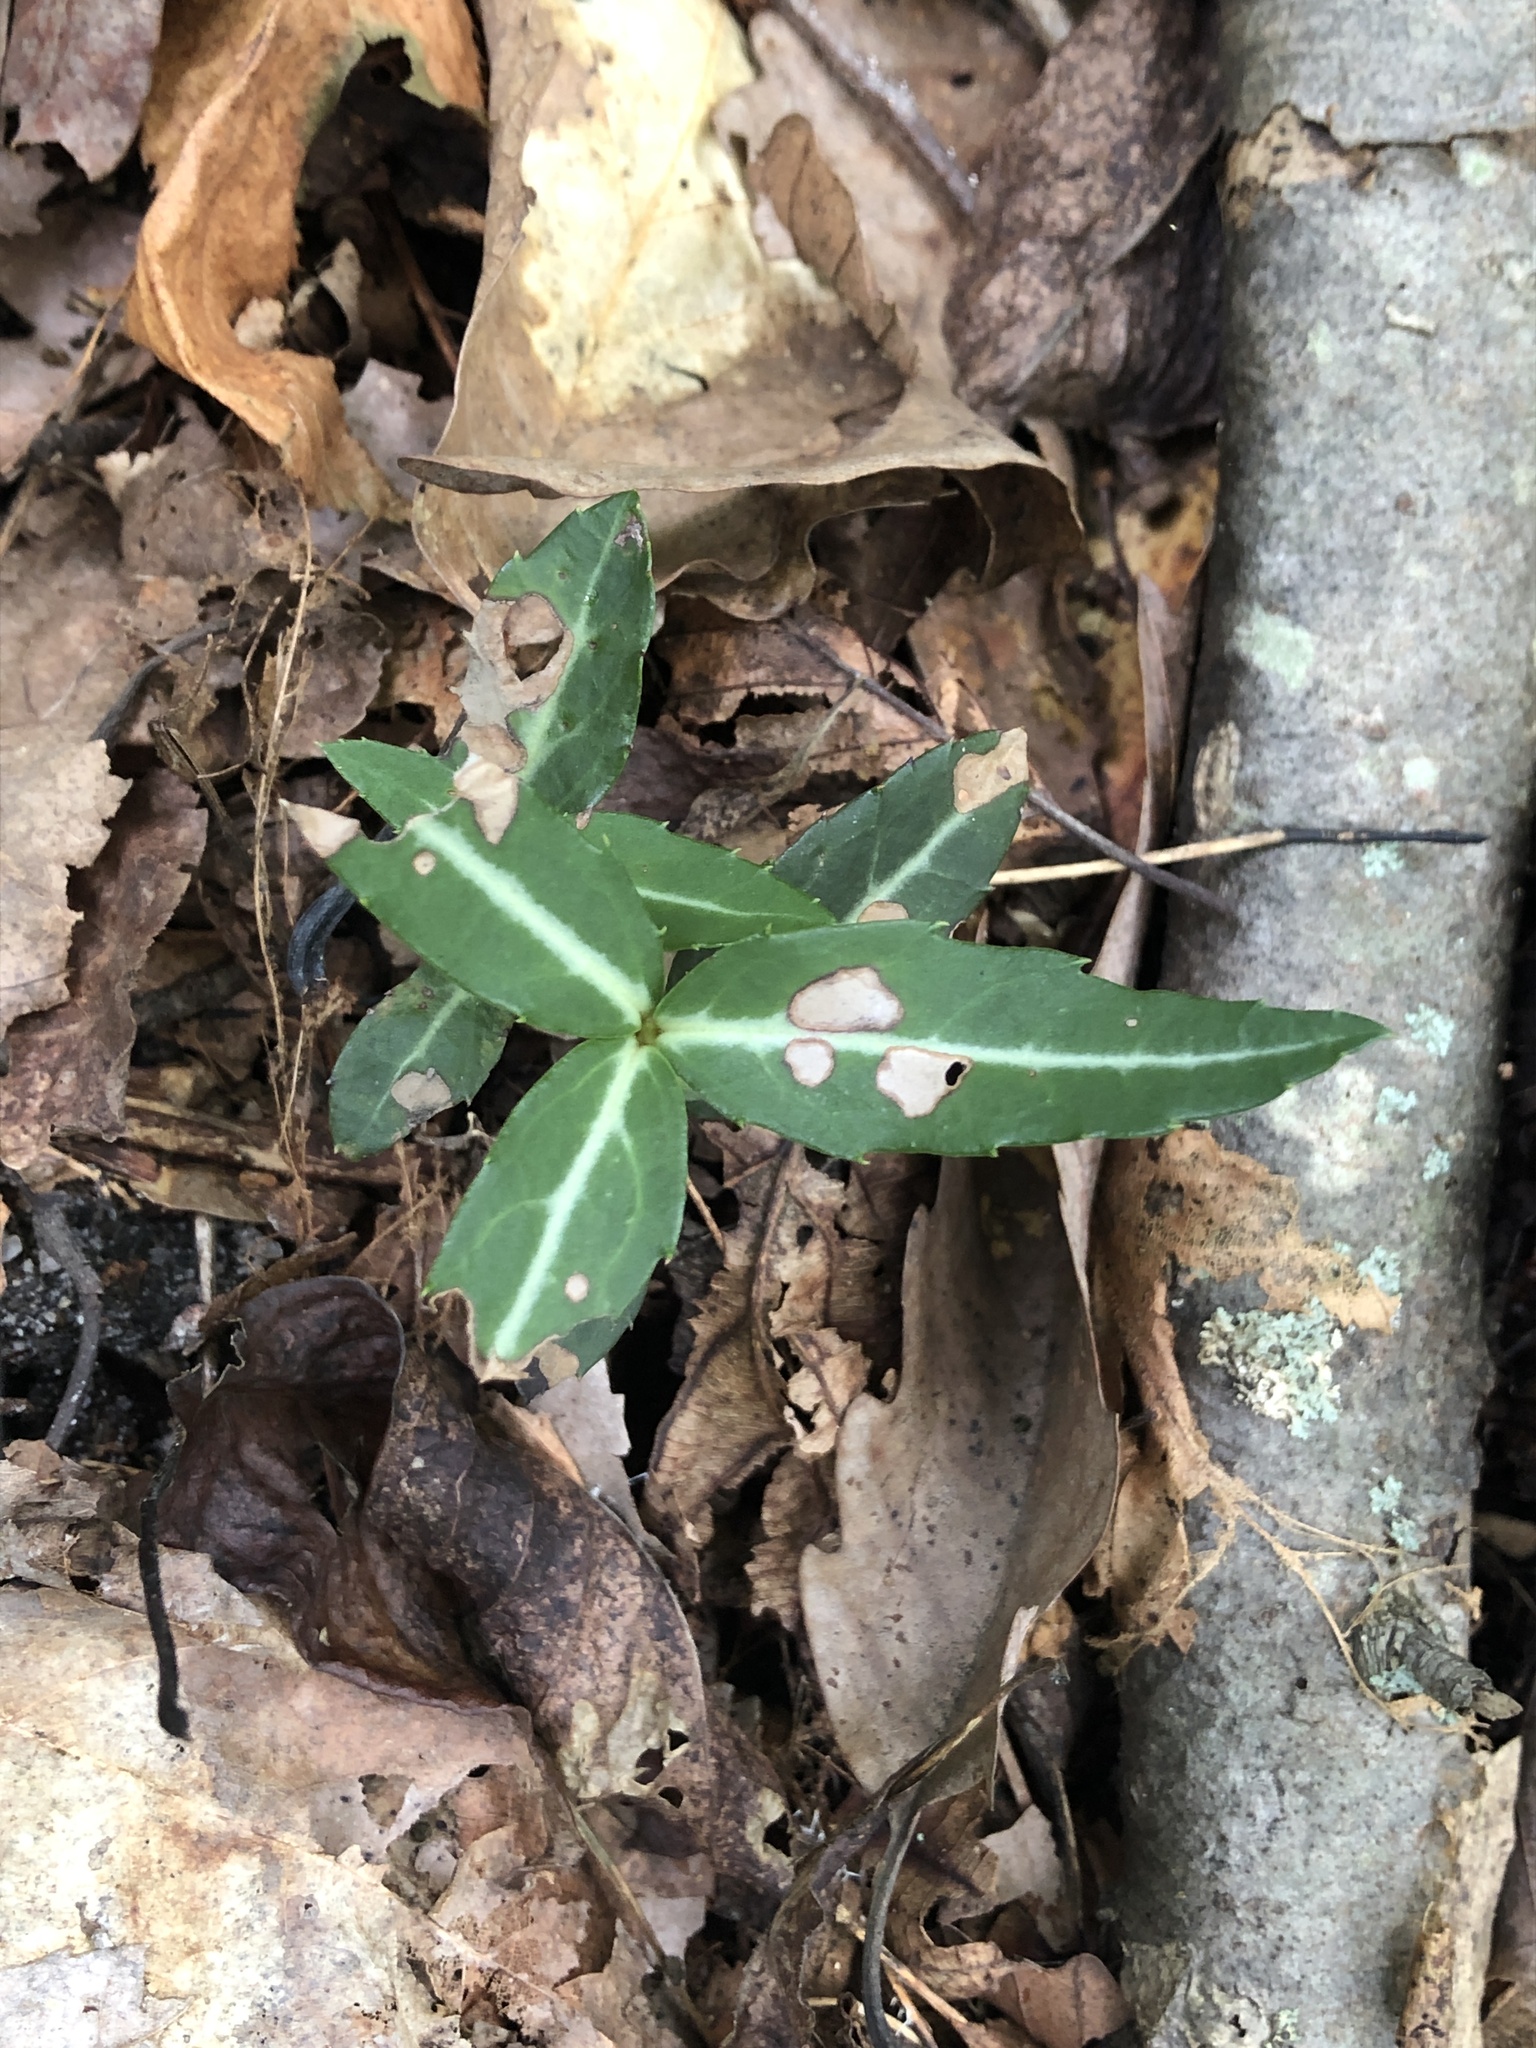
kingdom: Plantae
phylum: Tracheophyta
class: Magnoliopsida
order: Ericales
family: Ericaceae
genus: Chimaphila
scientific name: Chimaphila maculata
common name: Spotted pipsissewa
